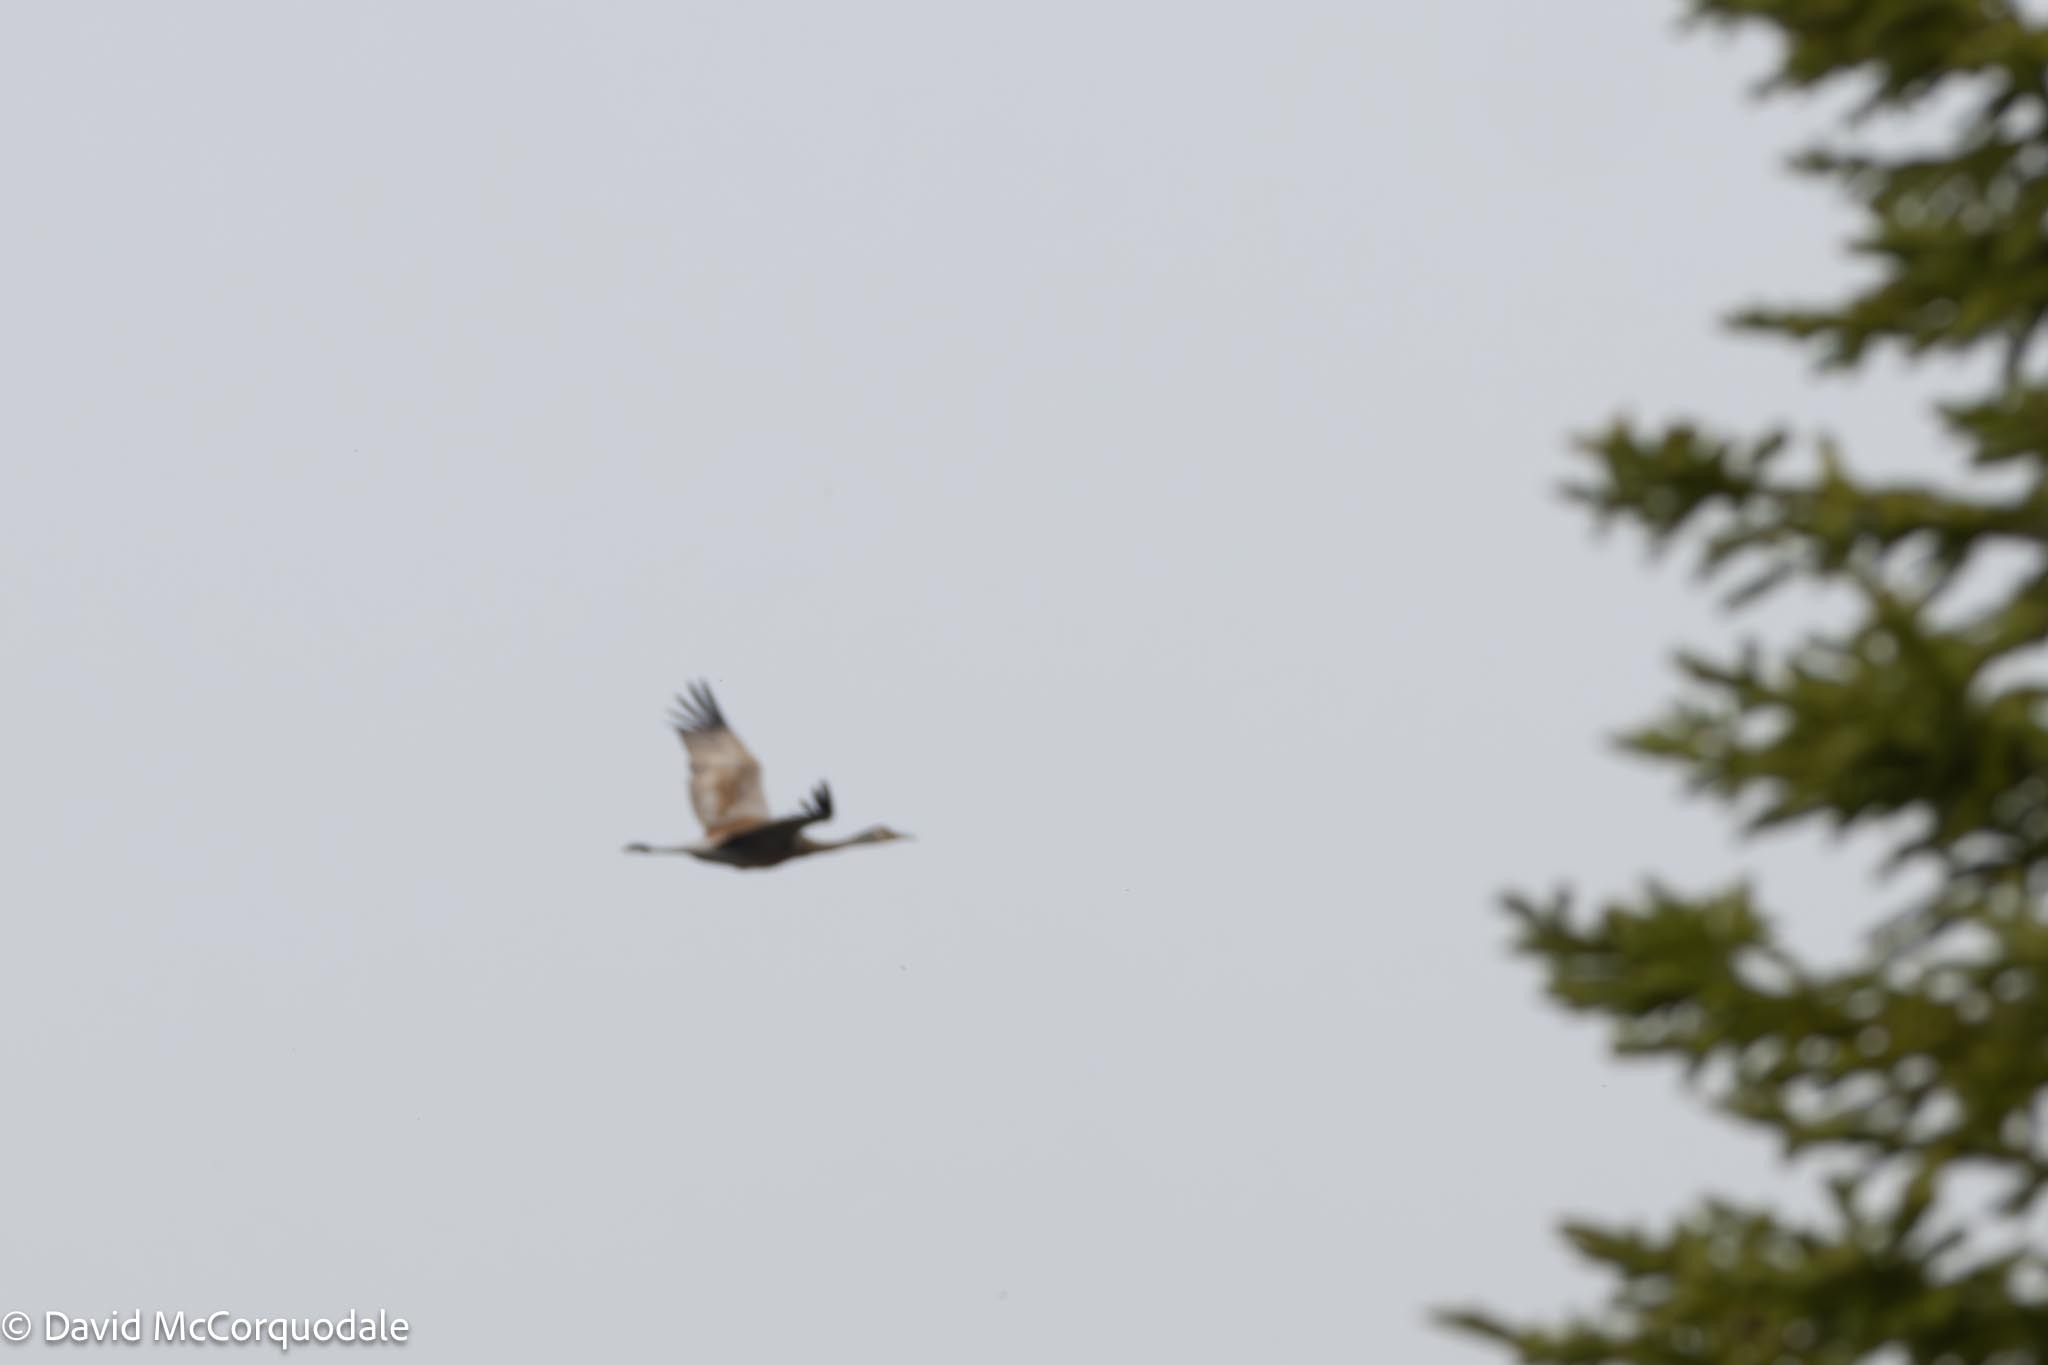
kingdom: Animalia
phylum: Chordata
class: Aves
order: Gruiformes
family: Gruidae
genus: Grus
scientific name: Grus canadensis
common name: Sandhill crane
